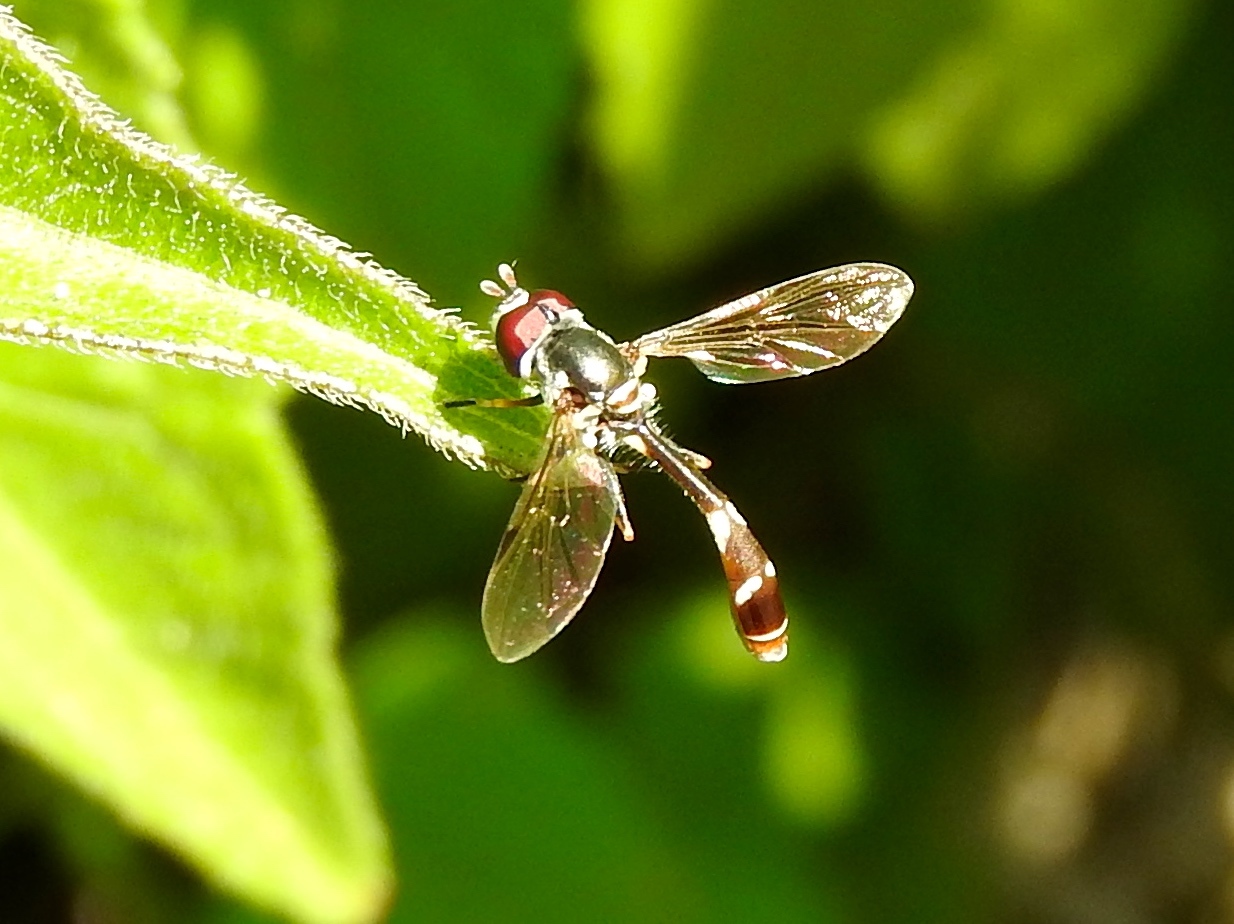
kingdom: Animalia
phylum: Arthropoda
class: Insecta
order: Diptera
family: Syrphidae
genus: Dioprosopa
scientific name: Dioprosopa
